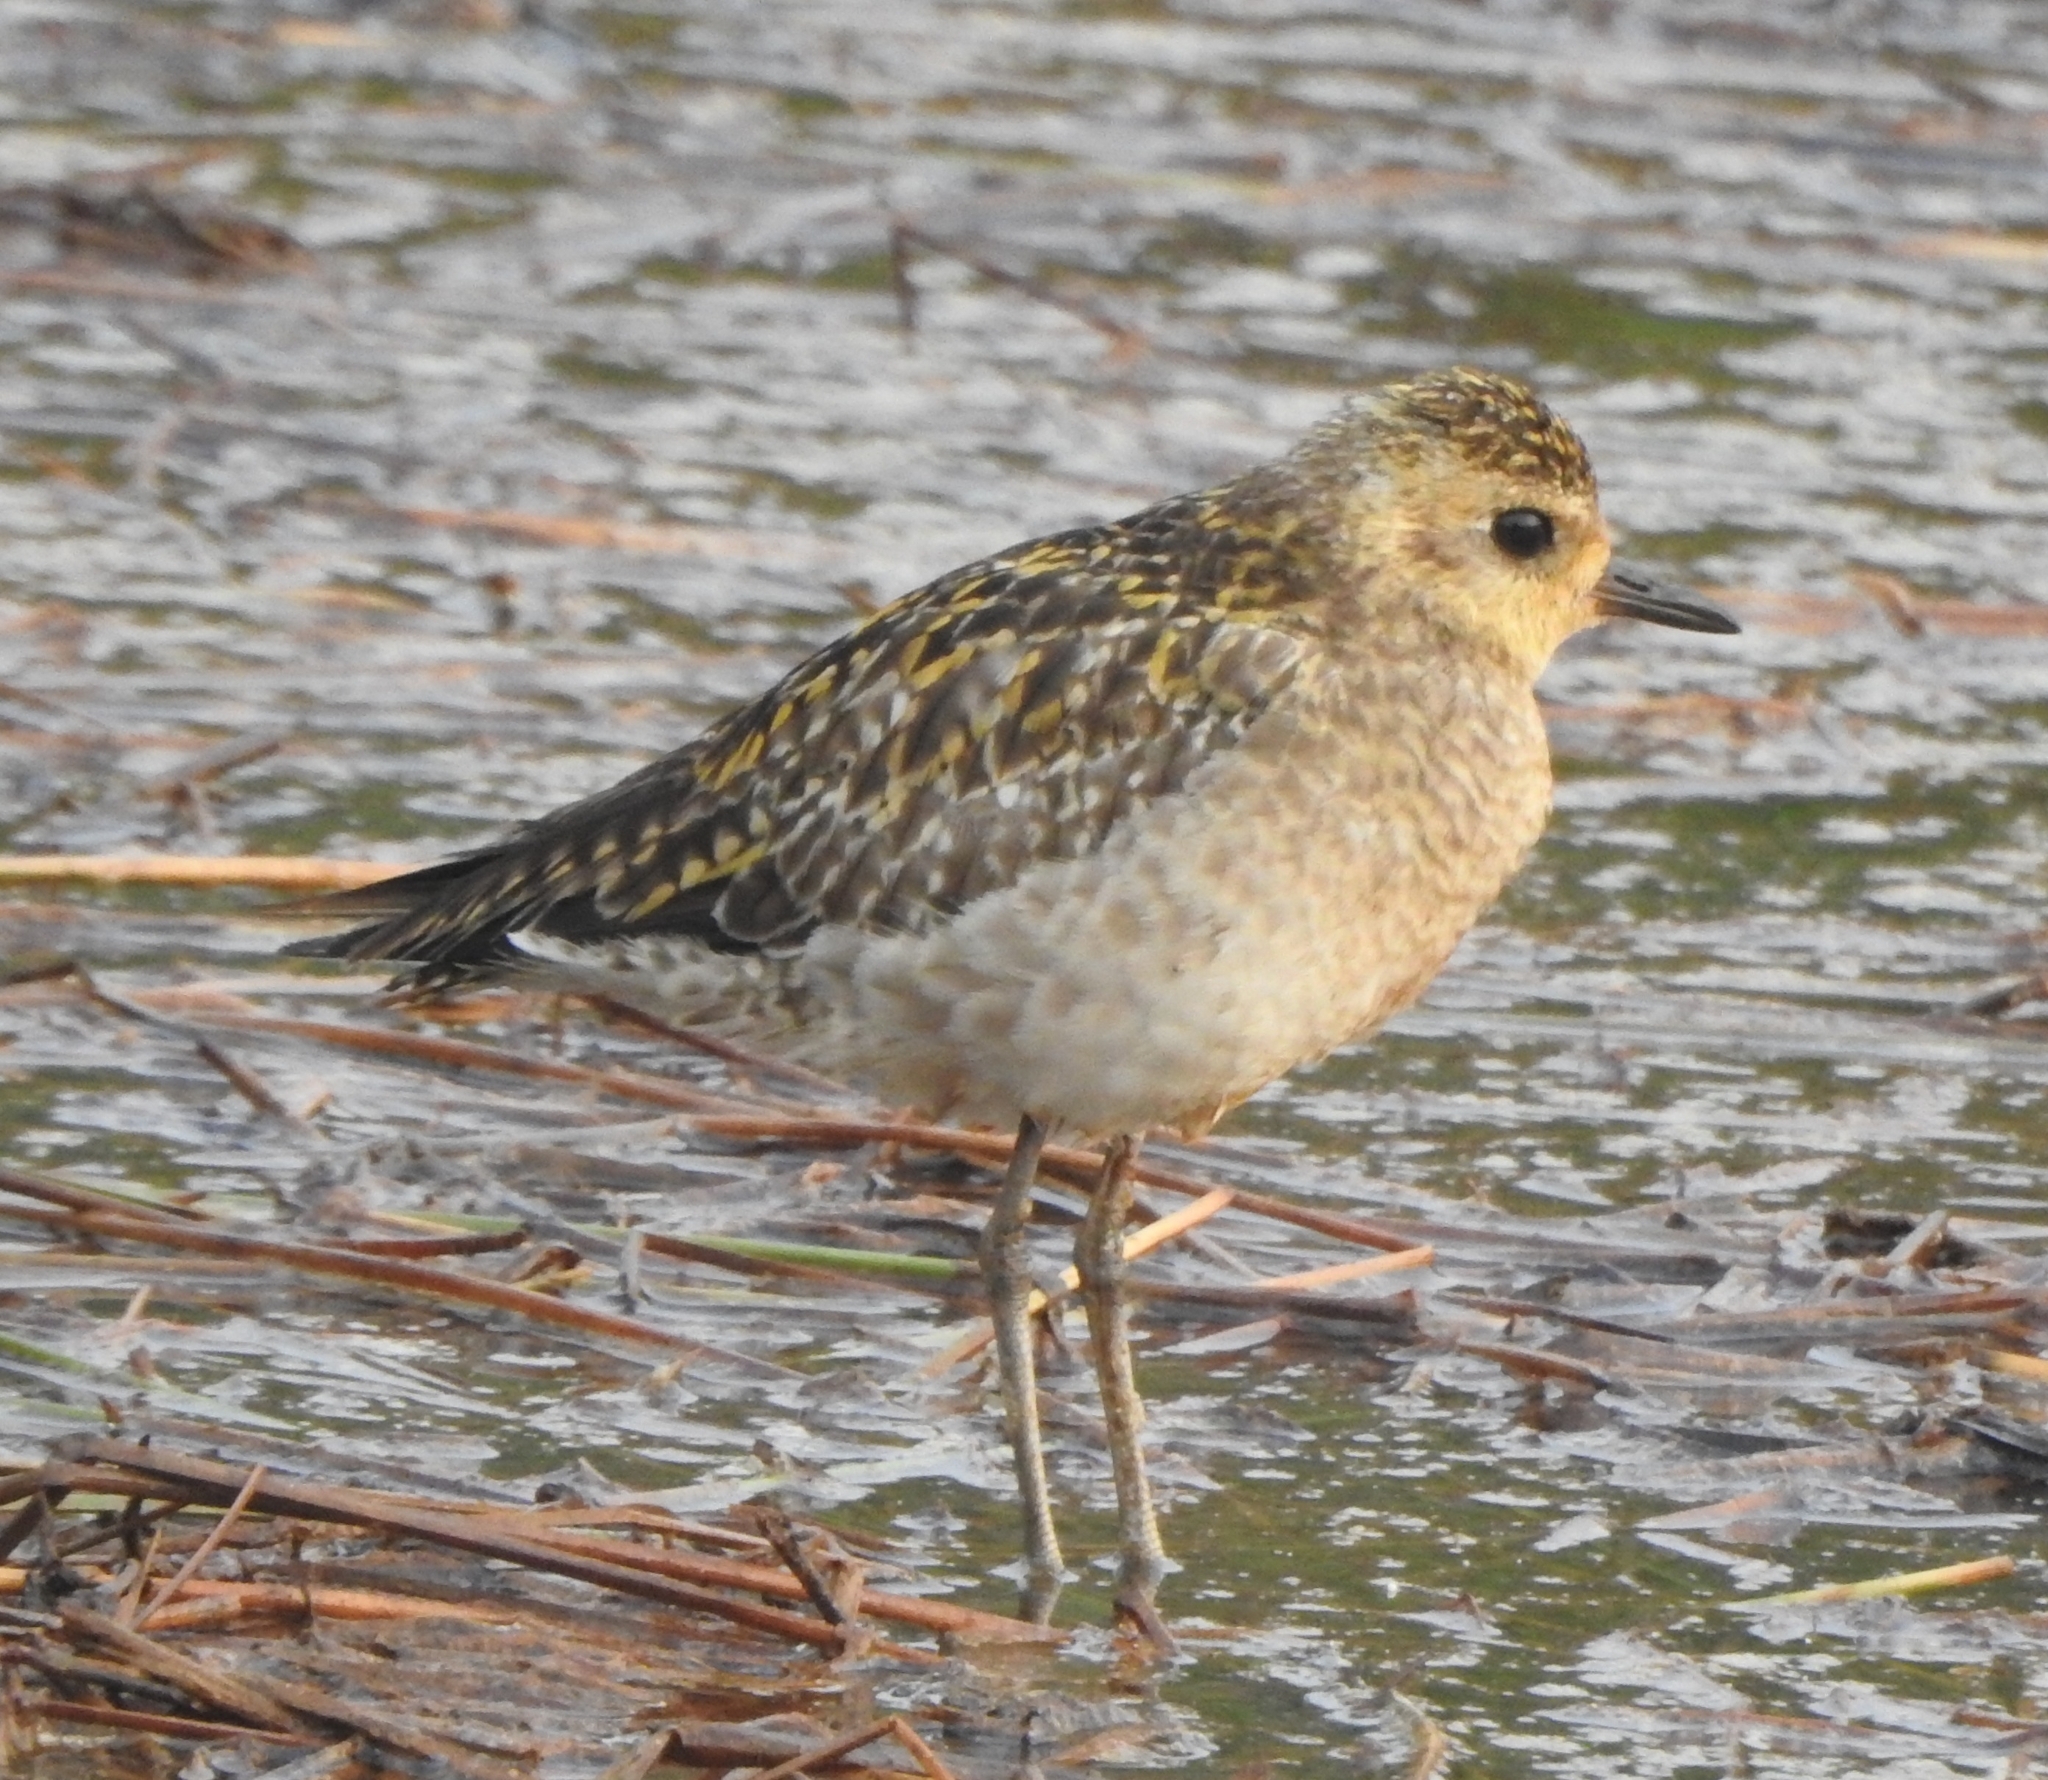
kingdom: Animalia
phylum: Chordata
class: Aves
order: Charadriiformes
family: Charadriidae
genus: Pluvialis
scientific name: Pluvialis fulva
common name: Pacific golden plover
